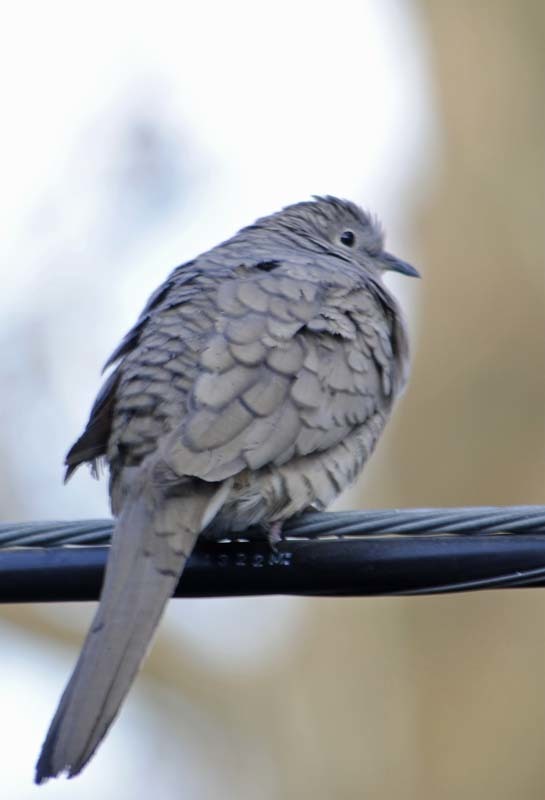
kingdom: Animalia
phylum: Chordata
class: Aves
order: Columbiformes
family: Columbidae
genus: Columbina
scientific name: Columbina inca
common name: Inca dove
